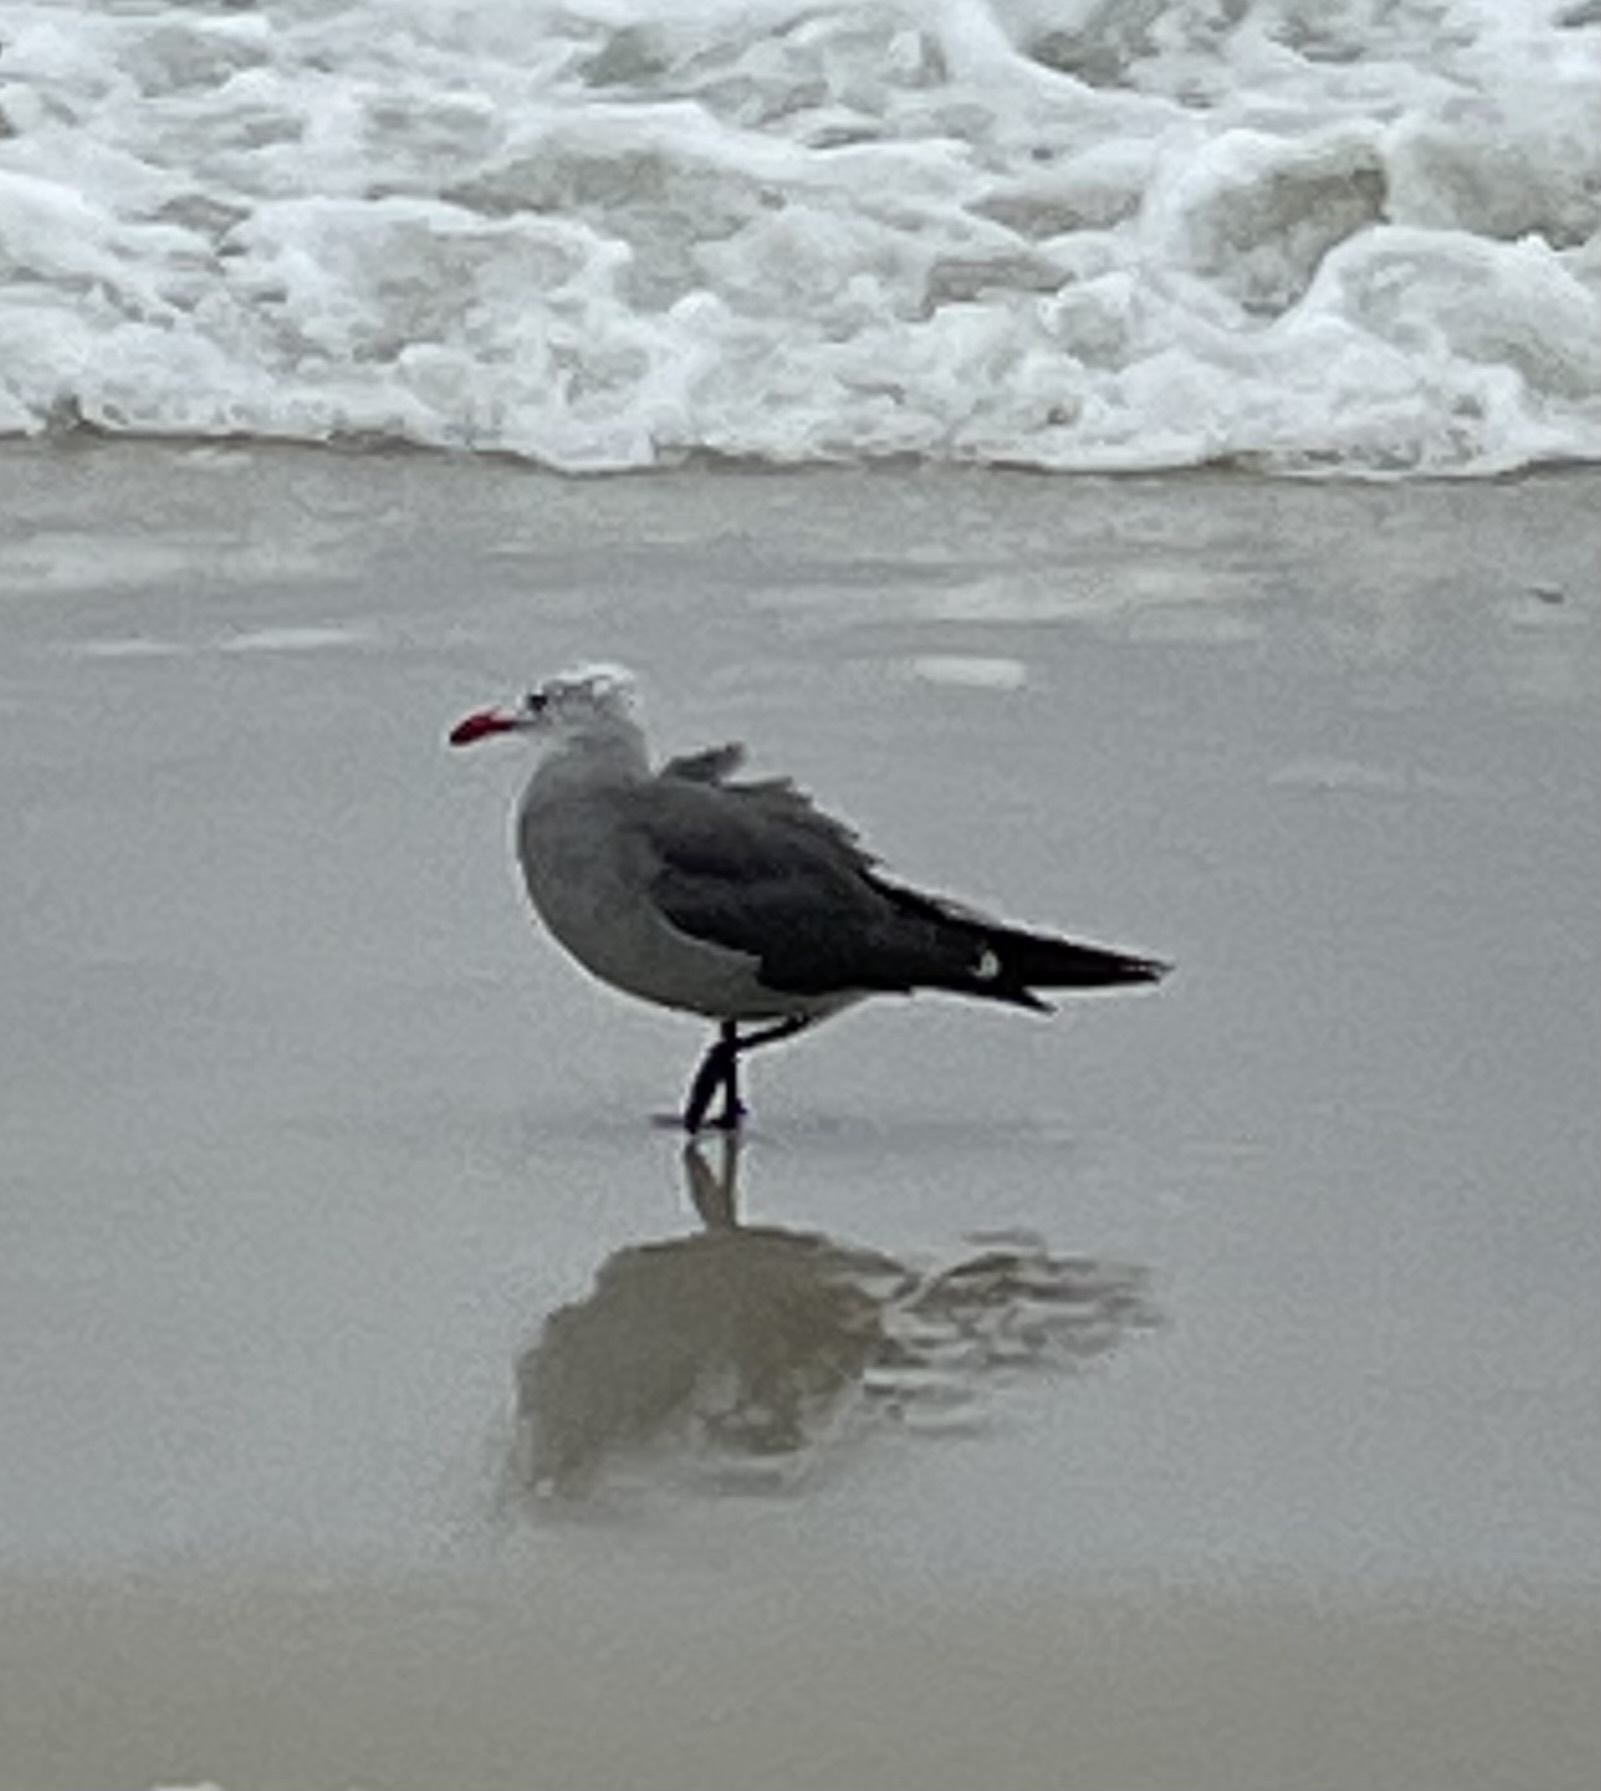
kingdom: Animalia
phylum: Chordata
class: Aves
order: Charadriiformes
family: Laridae
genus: Larus
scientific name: Larus heermanni
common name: Heermann's gull
